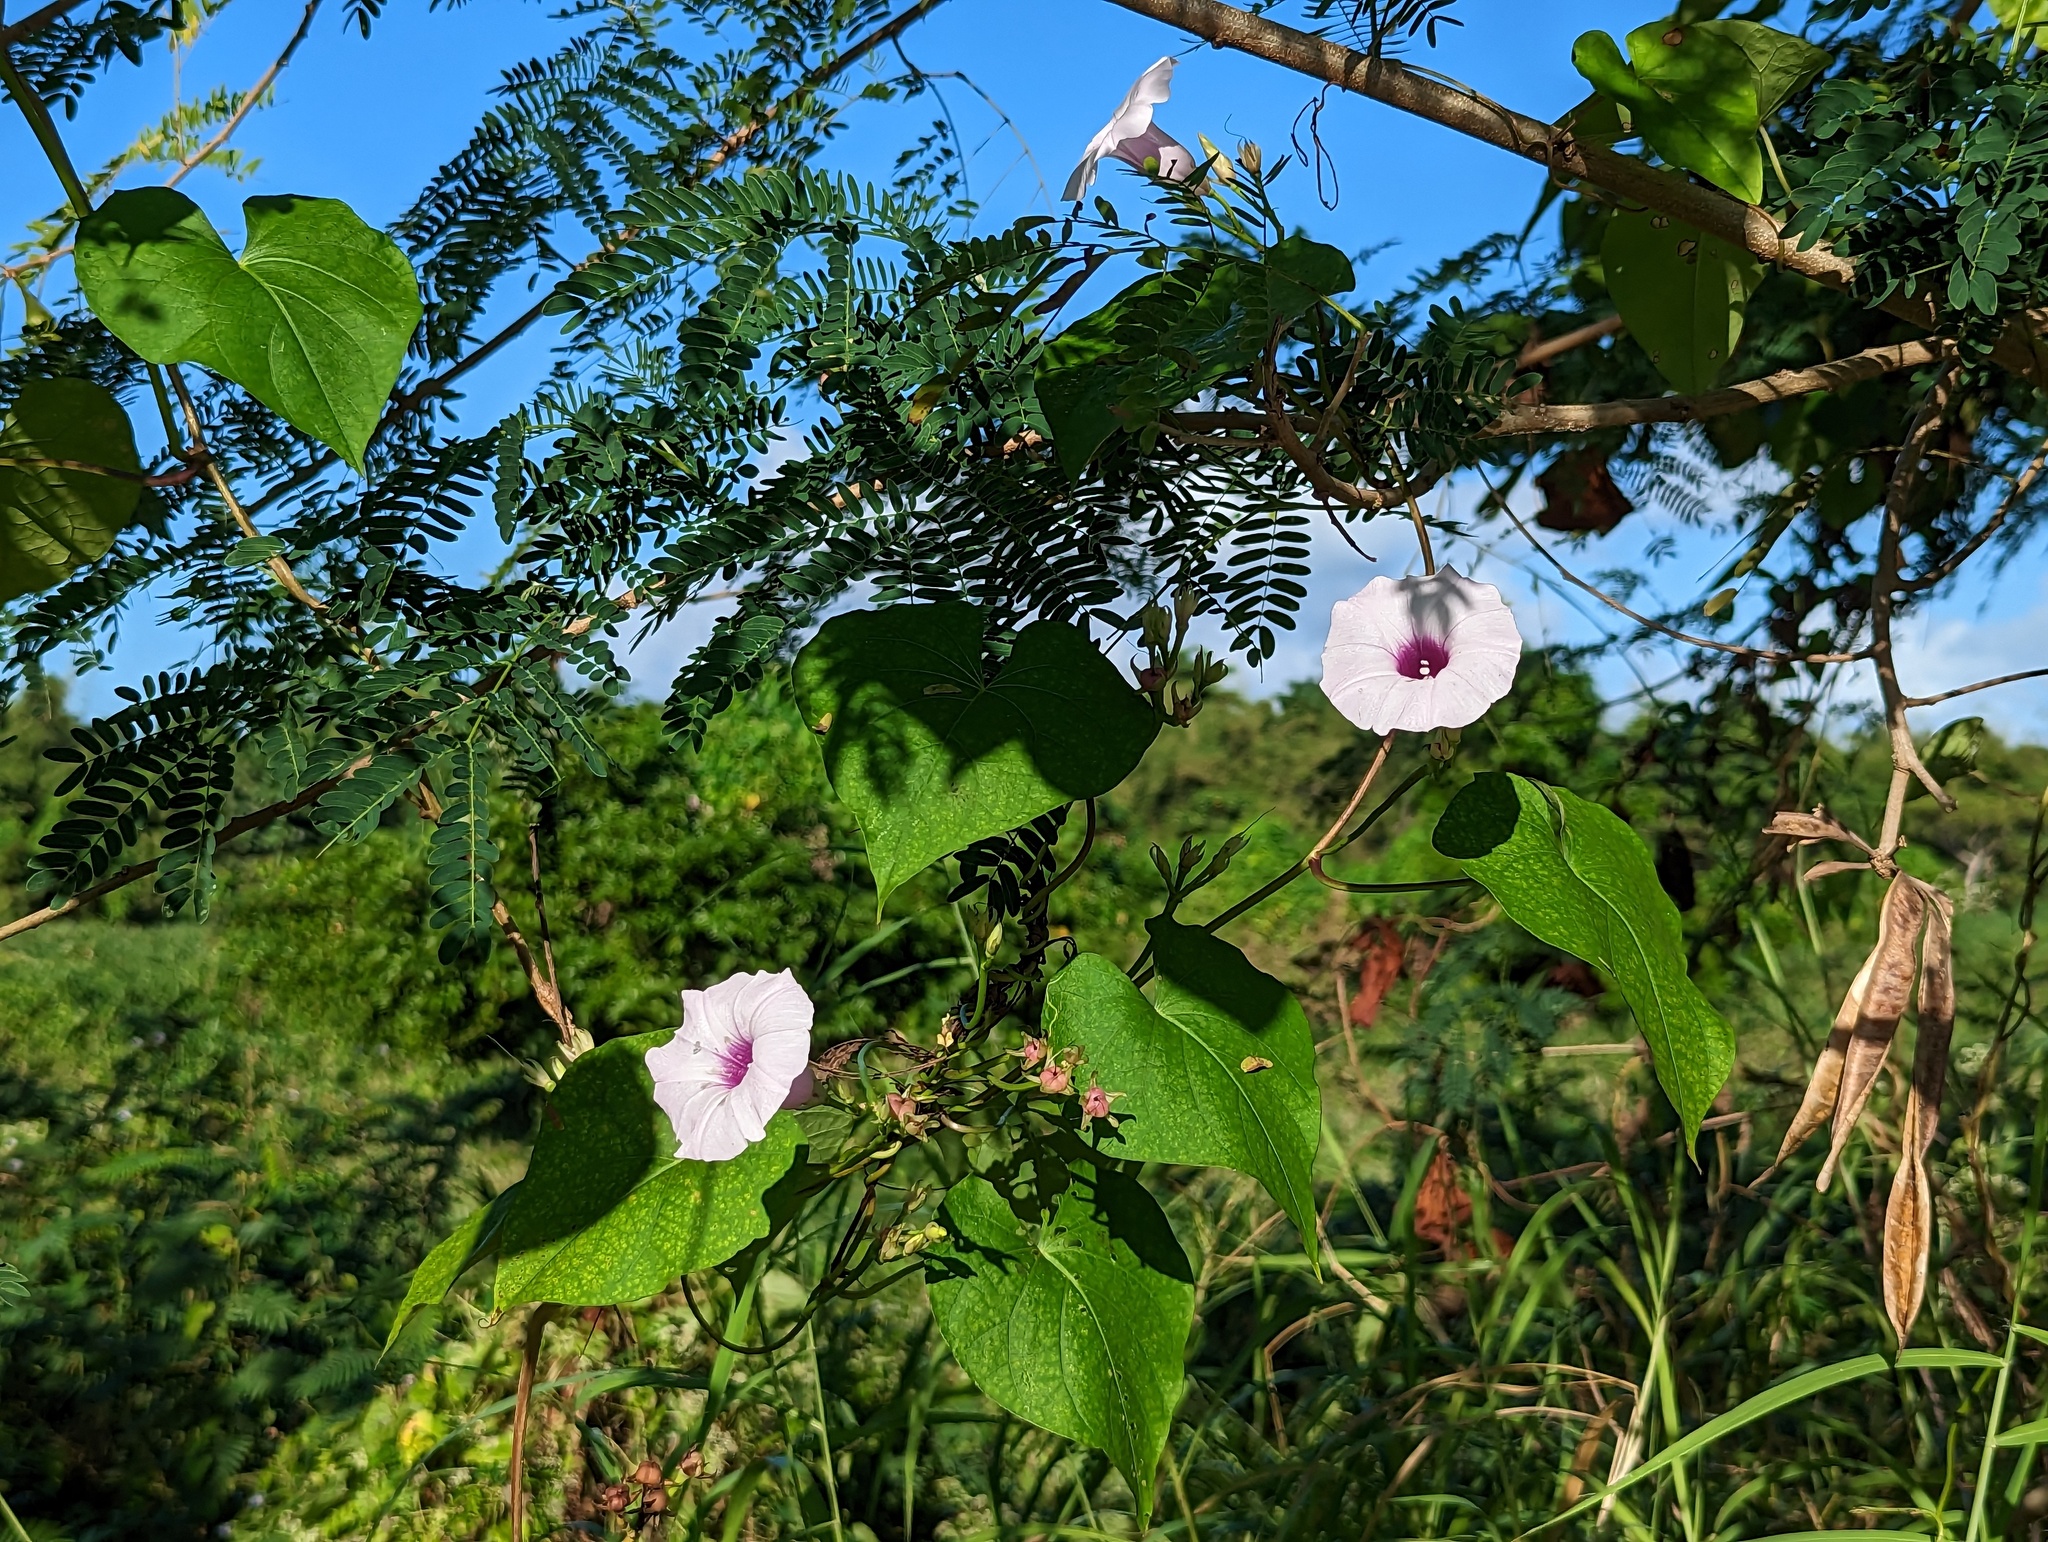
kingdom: Plantae
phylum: Tracheophyta
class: Magnoliopsida
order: Solanales
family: Convolvulaceae
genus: Ipomoea
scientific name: Ipomoea tiliacea
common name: Wild potato vine
